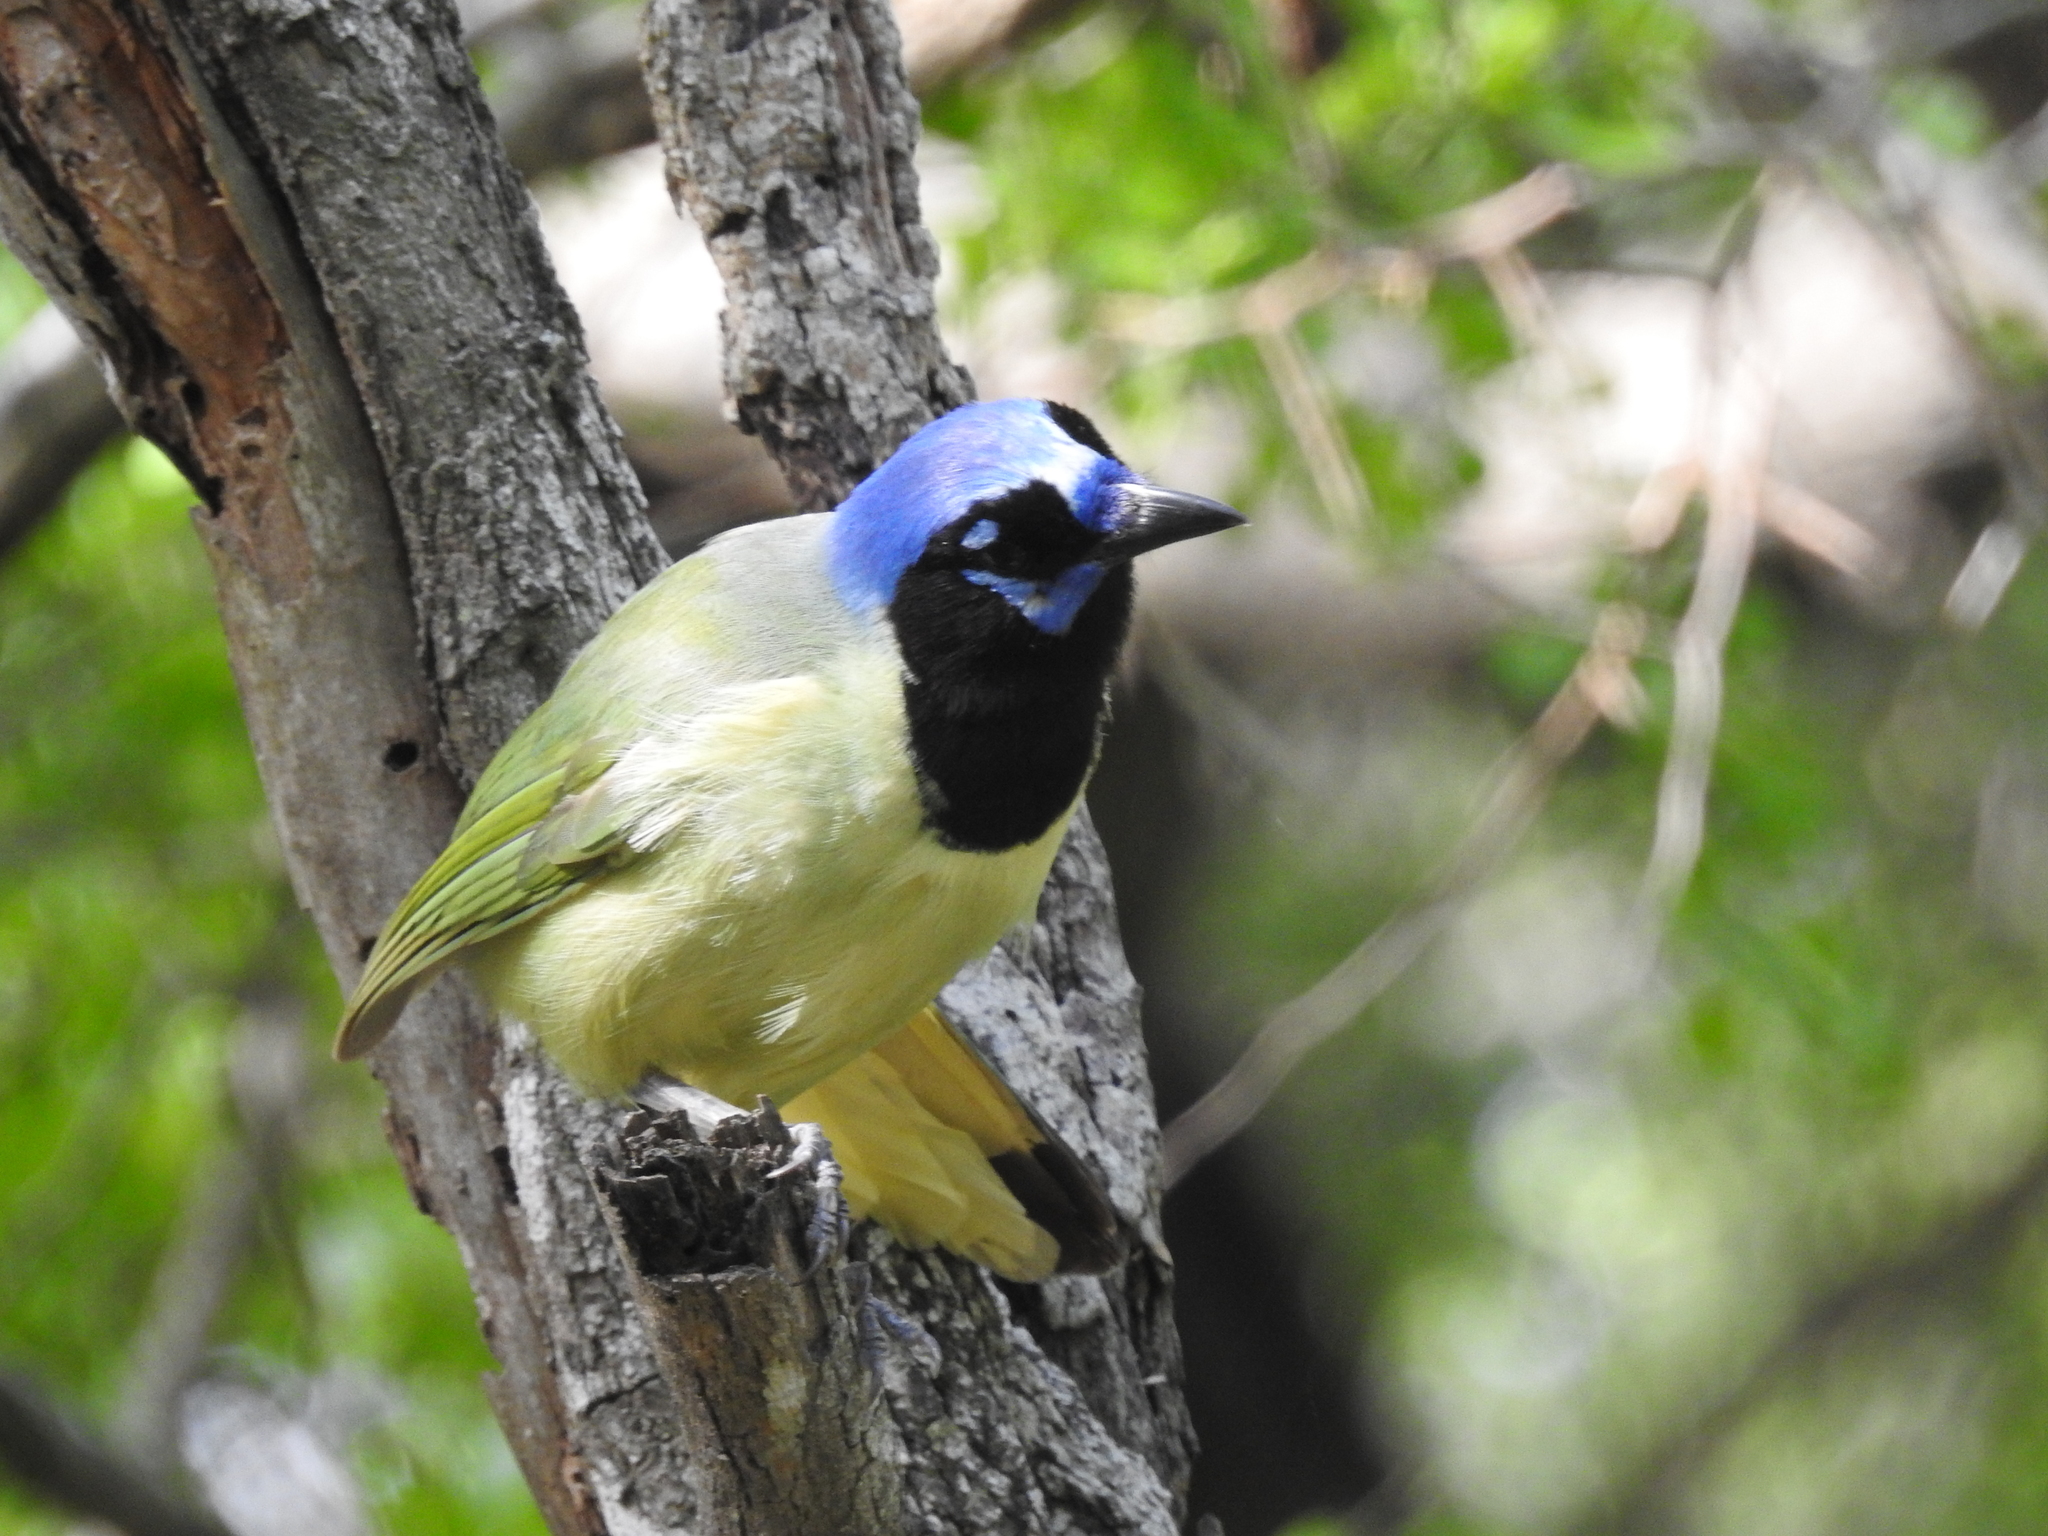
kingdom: Animalia
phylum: Chordata
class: Aves
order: Passeriformes
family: Corvidae
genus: Cyanocorax
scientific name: Cyanocorax yncas
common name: Green jay
